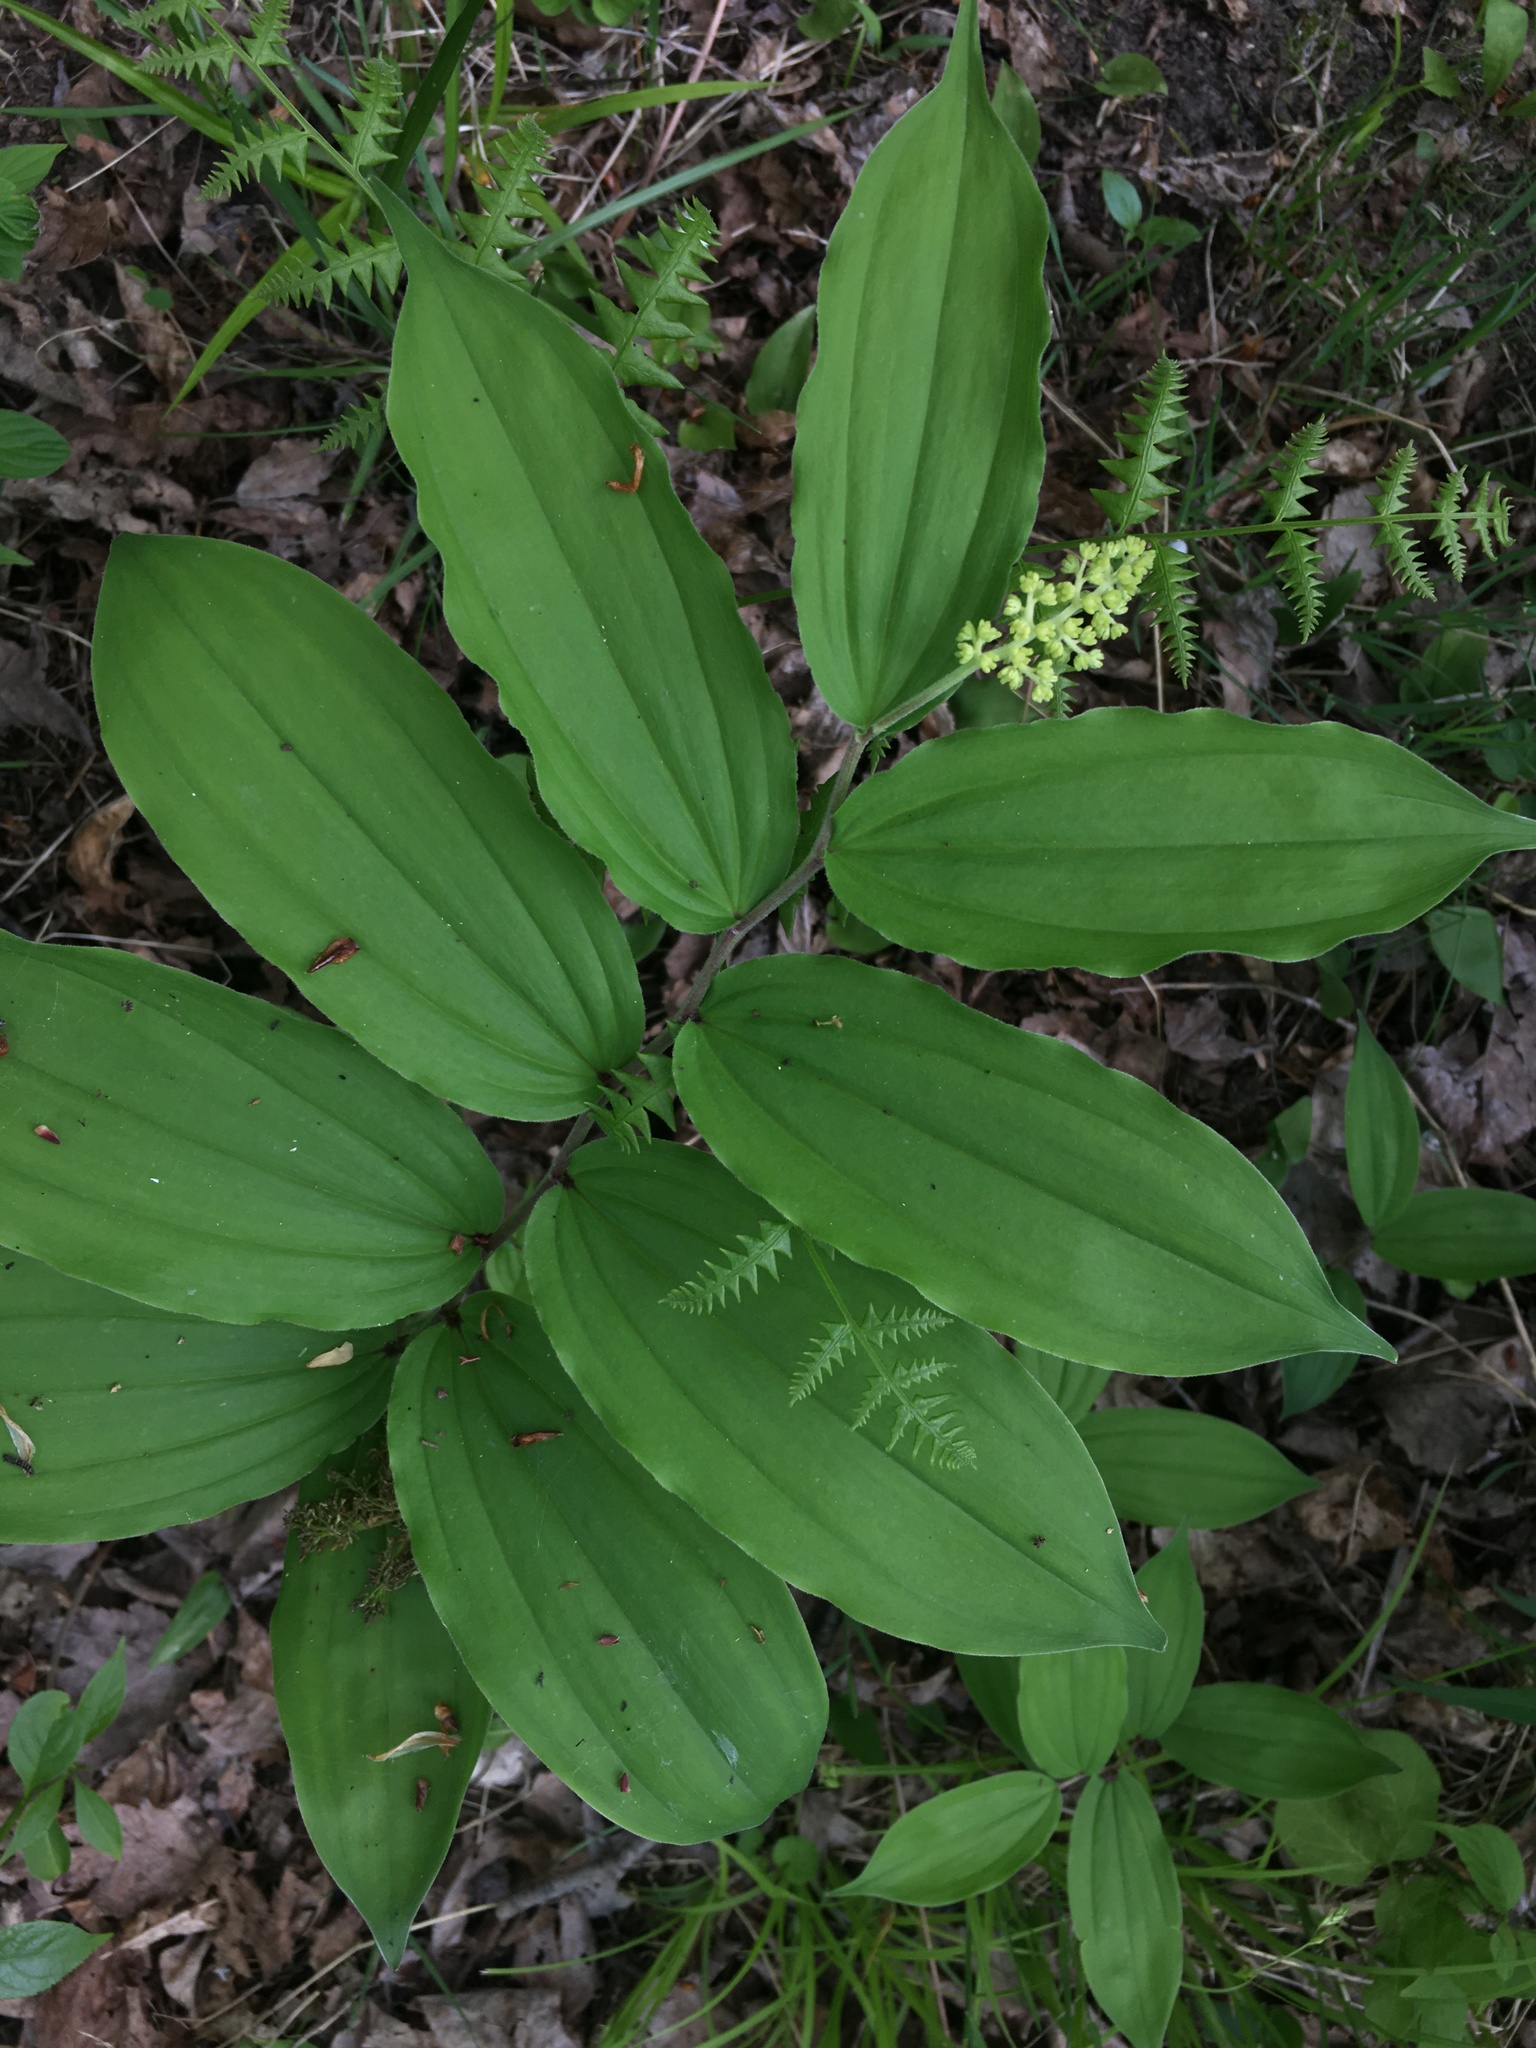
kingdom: Plantae
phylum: Tracheophyta
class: Liliopsida
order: Asparagales
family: Asparagaceae
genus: Maianthemum
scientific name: Maianthemum racemosum
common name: False spikenard
